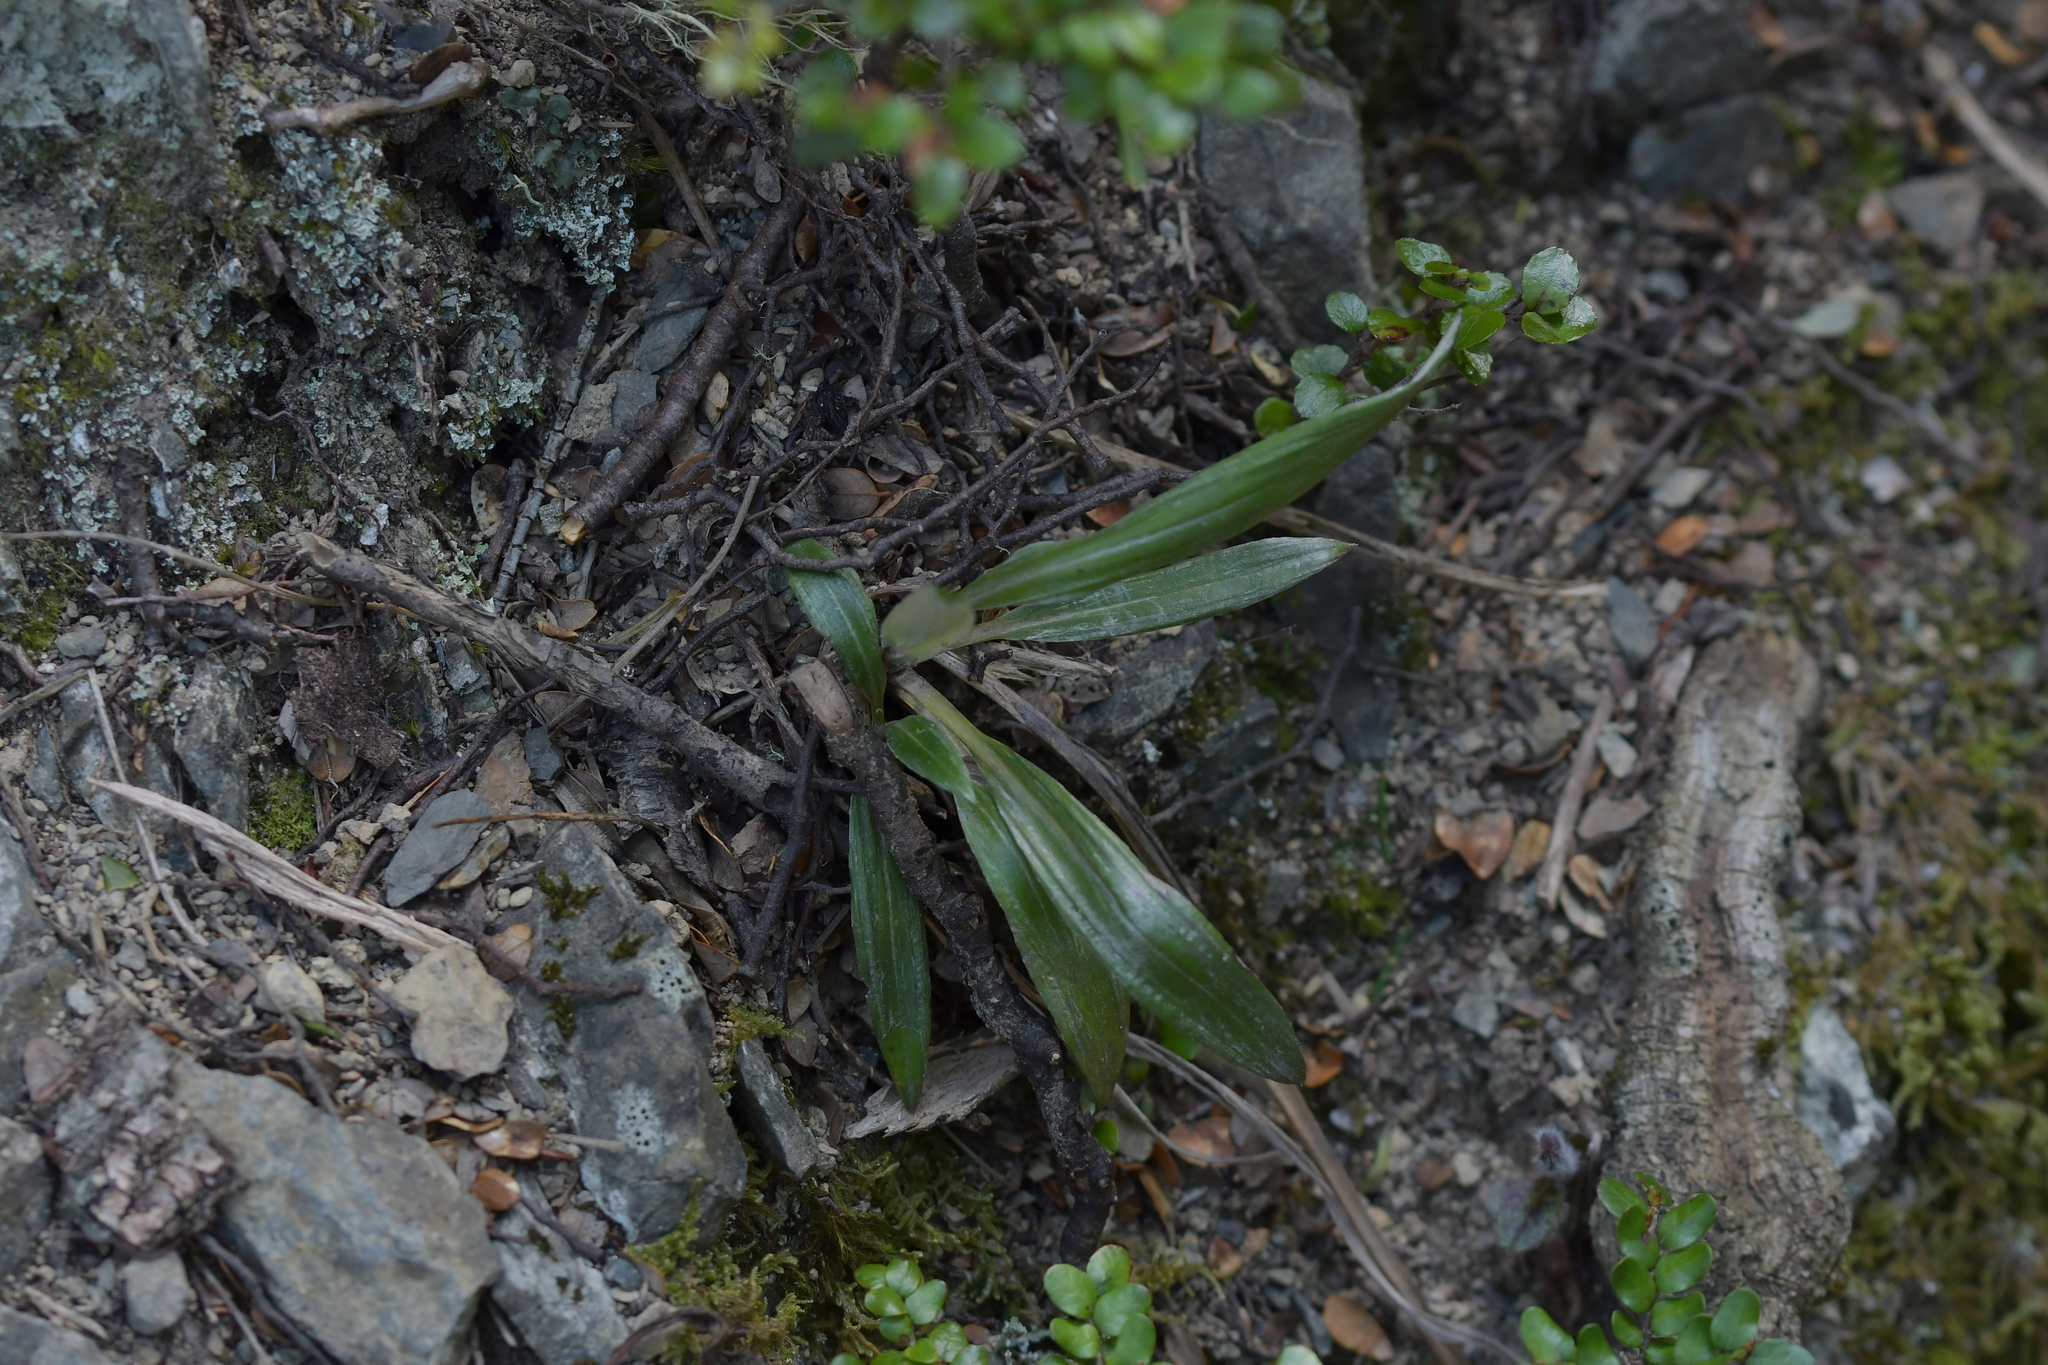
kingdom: Plantae
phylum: Tracheophyta
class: Magnoliopsida
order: Asterales
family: Asteraceae
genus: Celmisia
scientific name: Celmisia spectabilis
